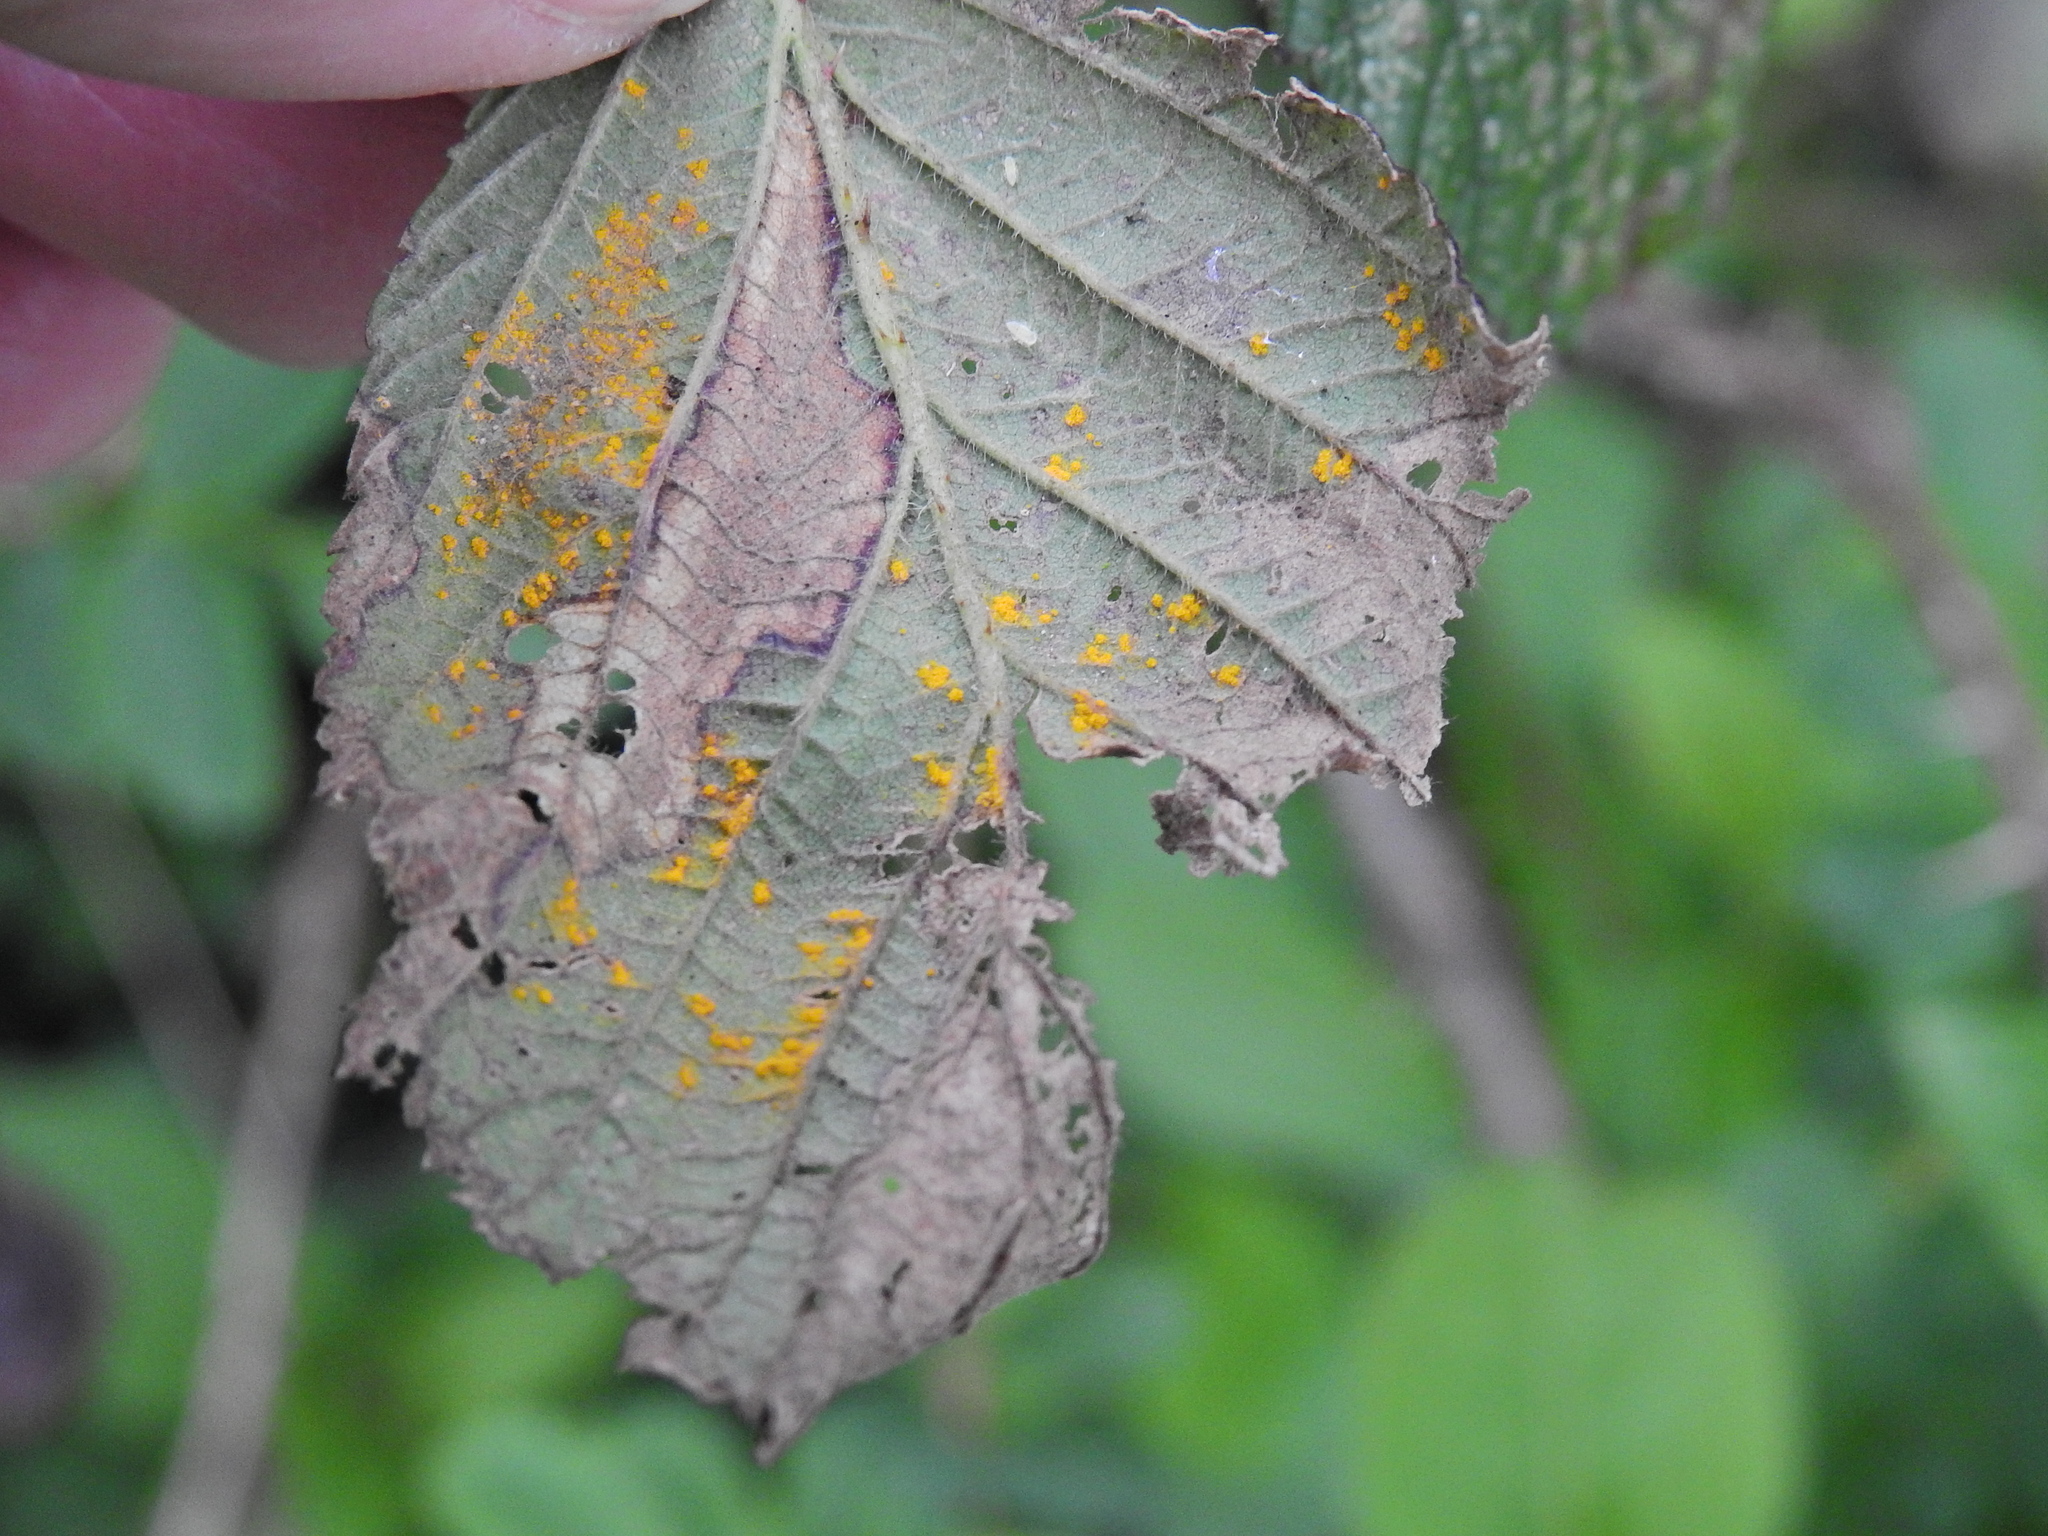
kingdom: Fungi
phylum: Basidiomycota
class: Pucciniomycetes
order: Pucciniales
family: Phragmidiaceae
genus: Phragmidium
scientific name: Phragmidium
